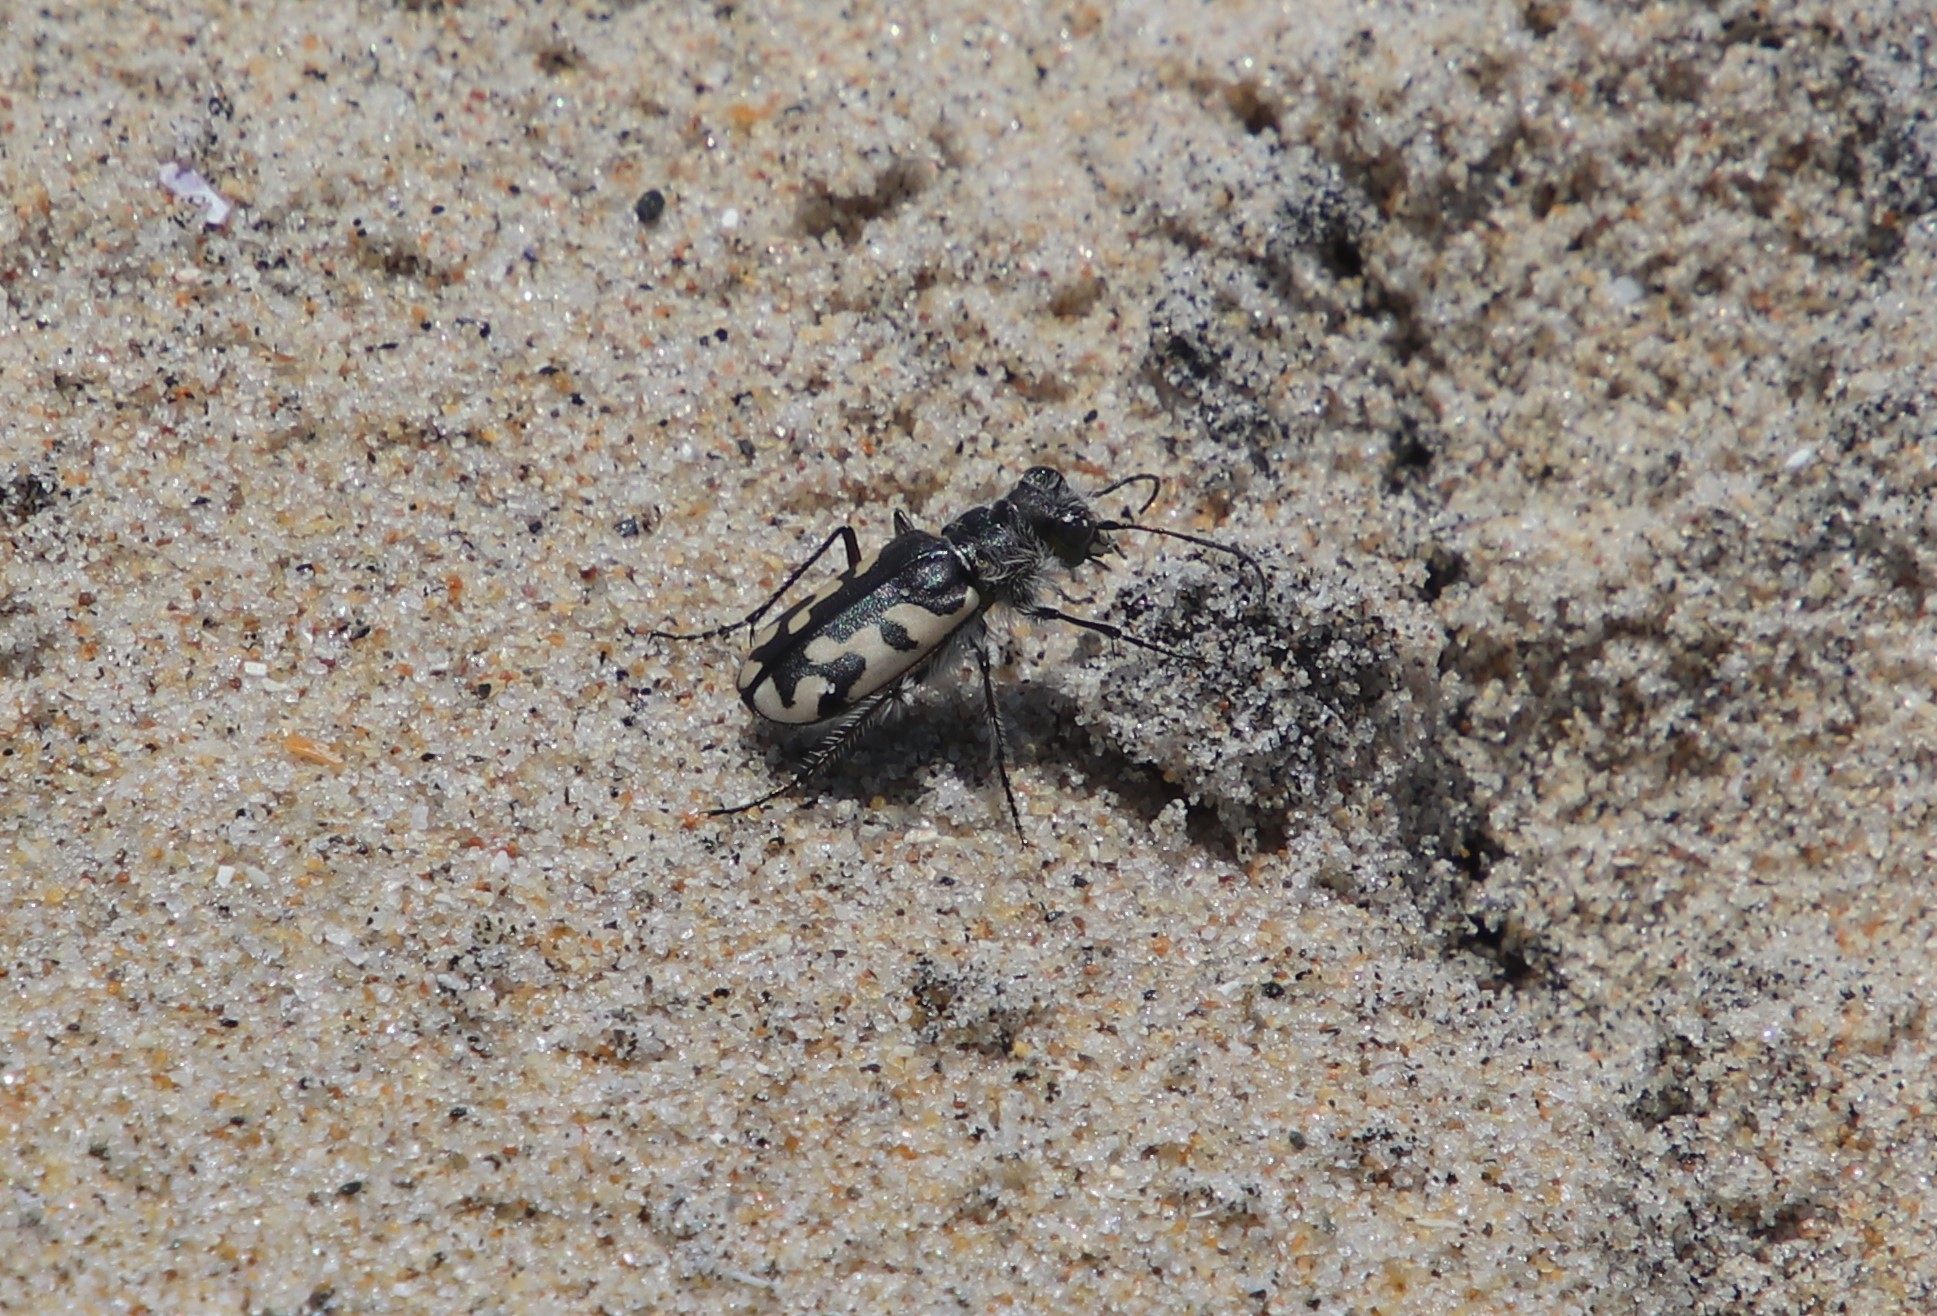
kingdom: Animalia
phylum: Arthropoda
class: Insecta
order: Coleoptera
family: Carabidae
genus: Cicindela
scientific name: Cicindela latesignata
